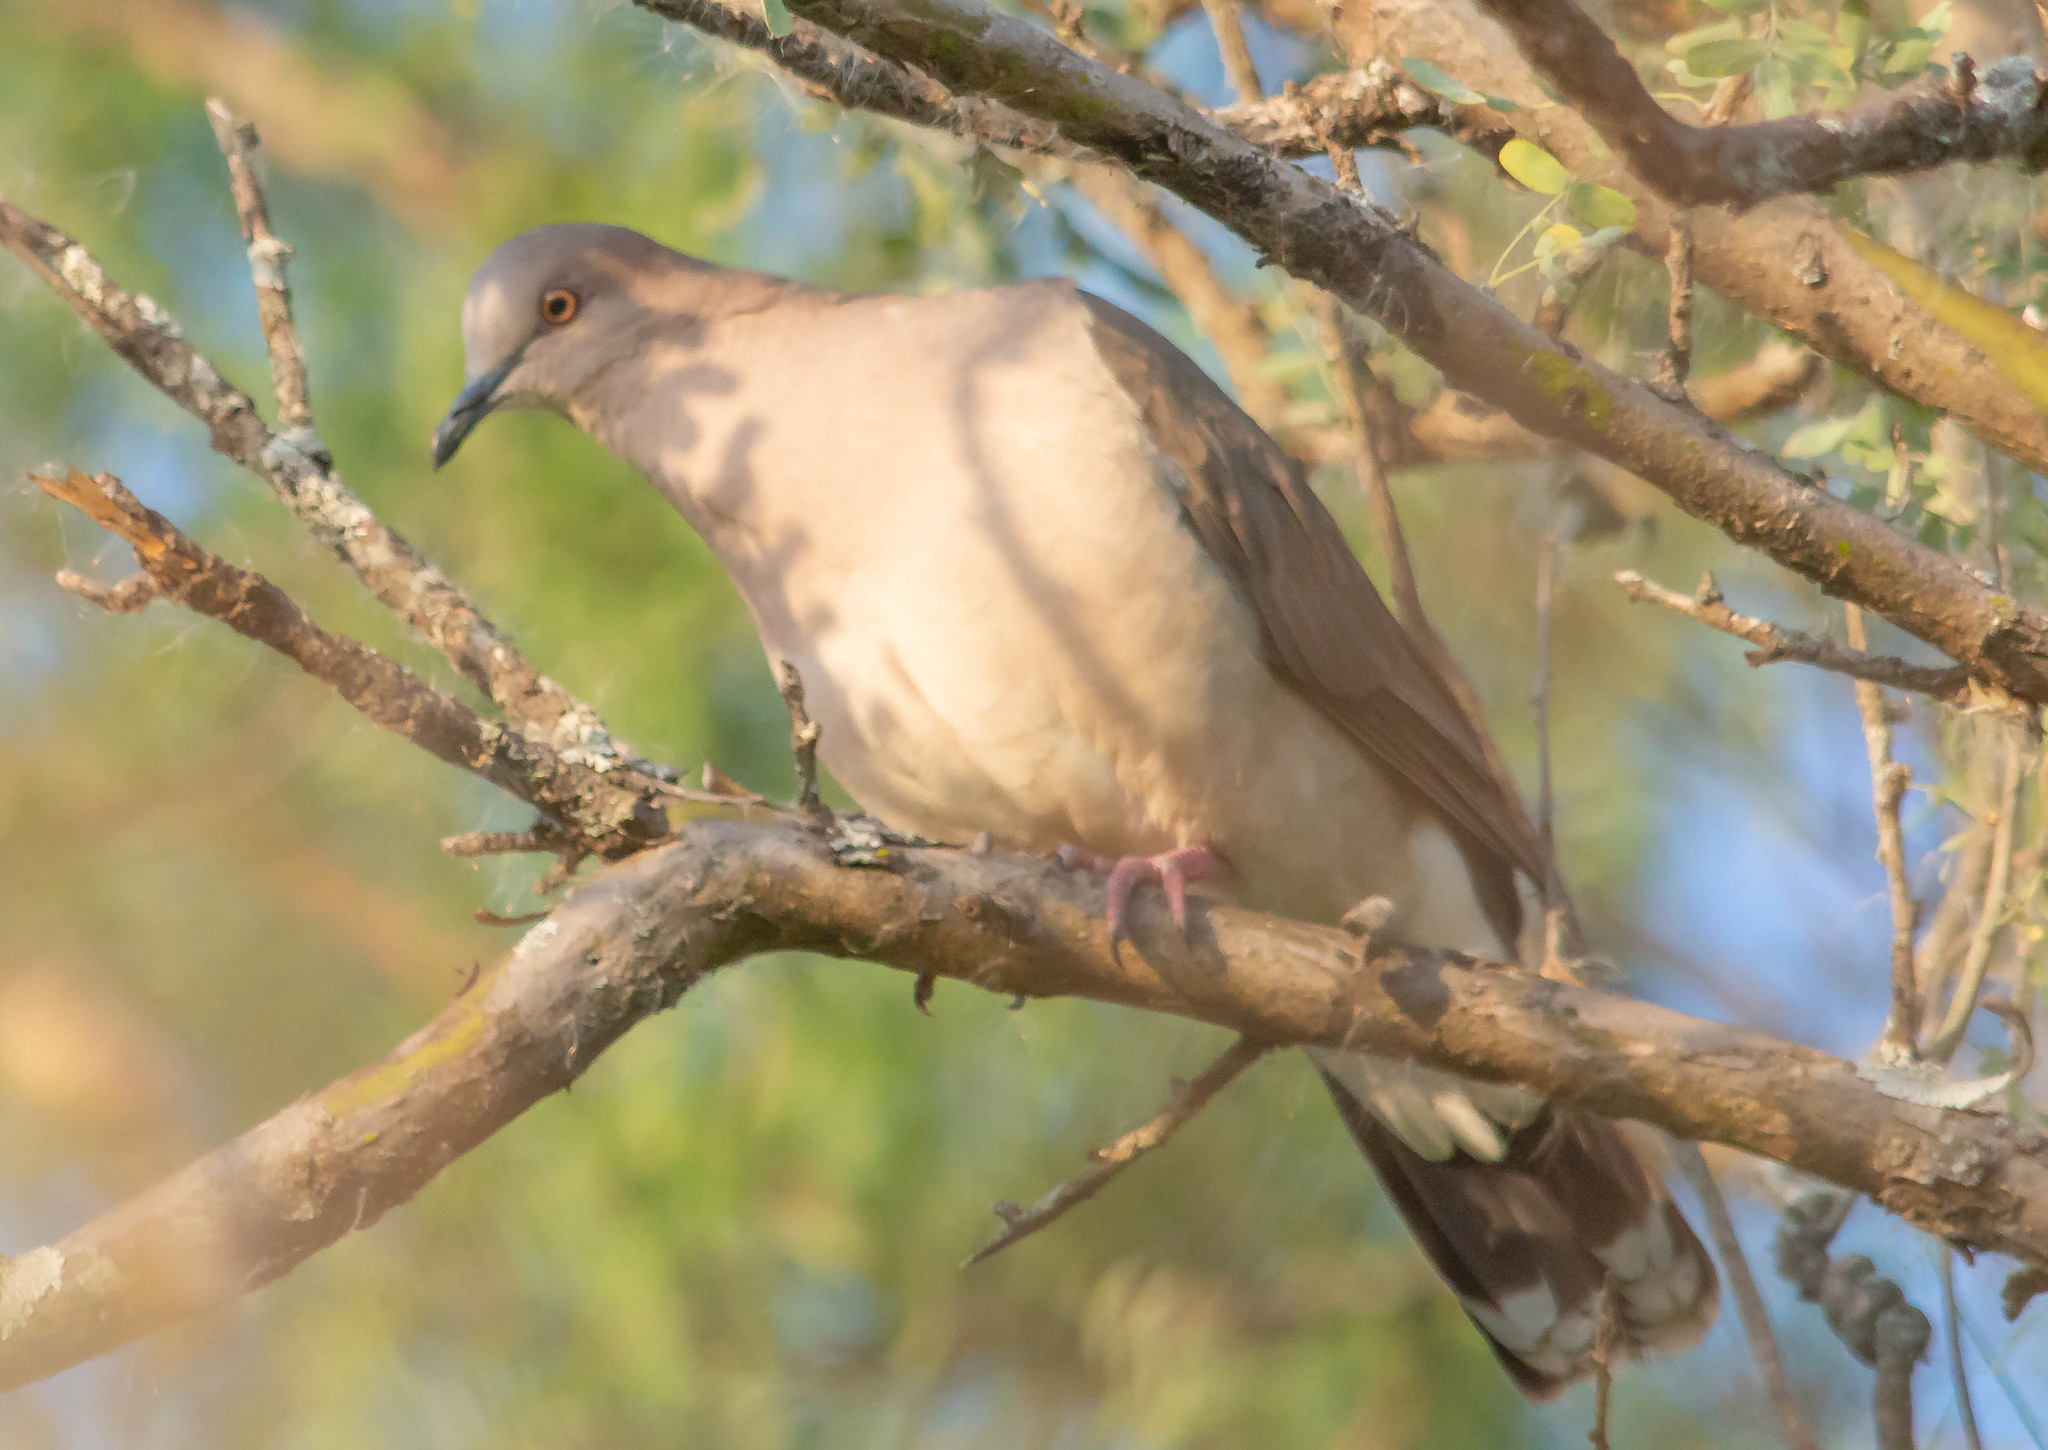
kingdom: Animalia
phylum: Chordata
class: Aves
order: Columbiformes
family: Columbidae
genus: Leptotila
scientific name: Leptotila verreauxi
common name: White-tipped dove
